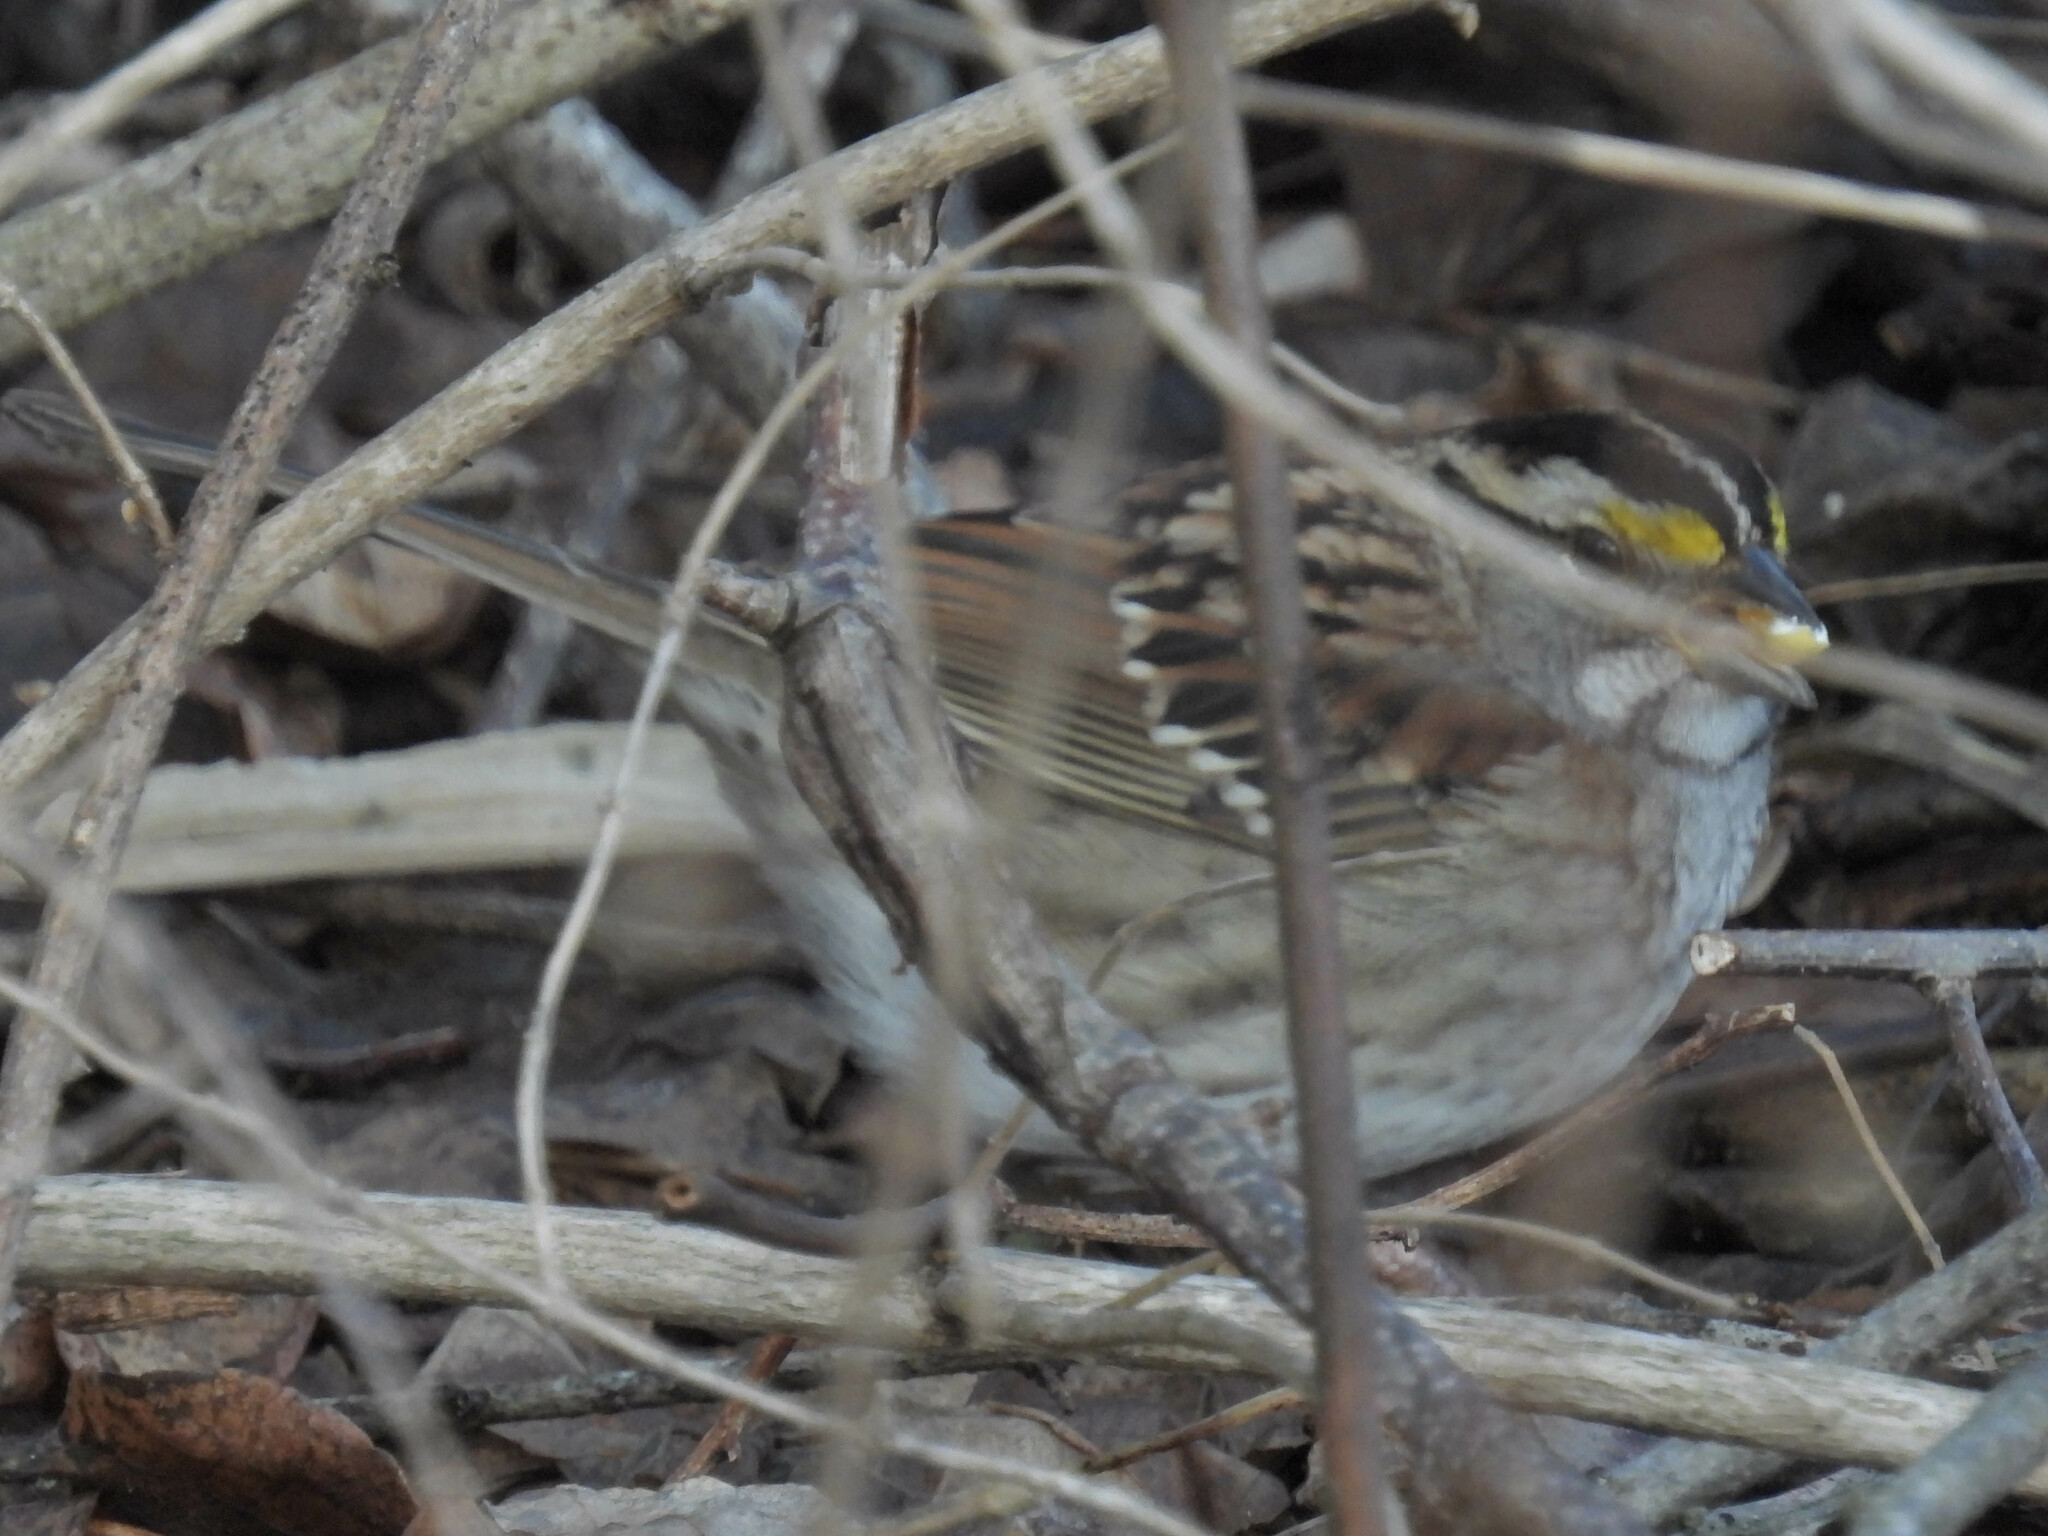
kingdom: Animalia
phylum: Chordata
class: Aves
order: Passeriformes
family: Passerellidae
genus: Zonotrichia
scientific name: Zonotrichia albicollis
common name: White-throated sparrow
